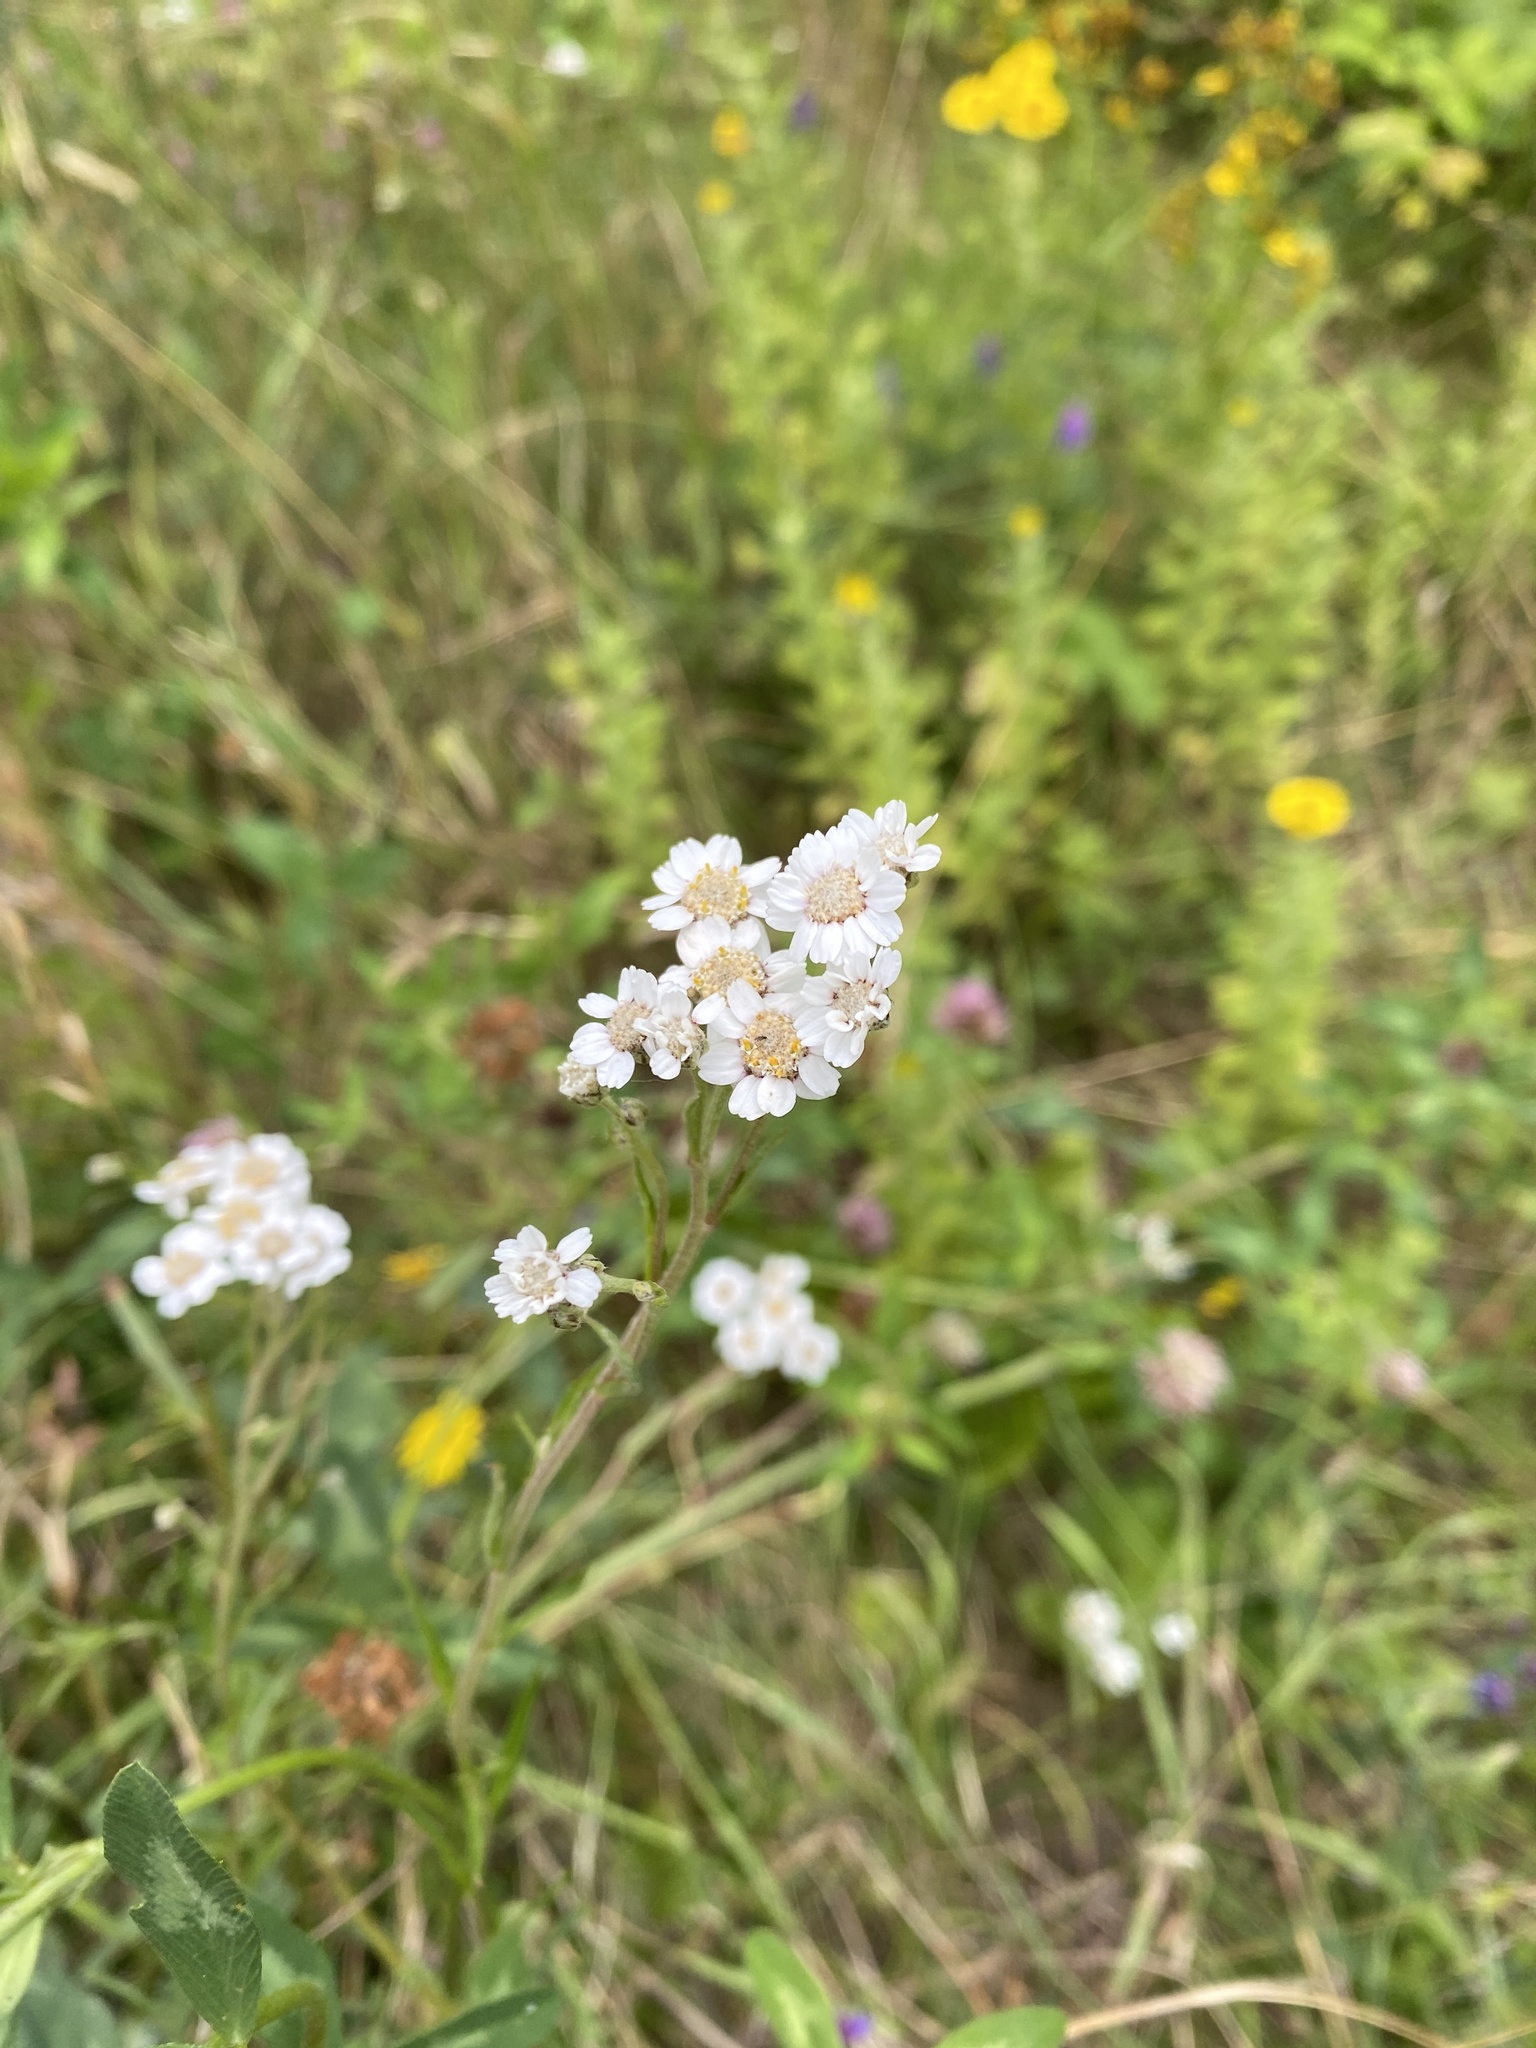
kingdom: Plantae
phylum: Tracheophyta
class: Magnoliopsida
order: Asterales
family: Asteraceae
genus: Achillea
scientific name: Achillea ptarmica
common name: Sneezeweed
